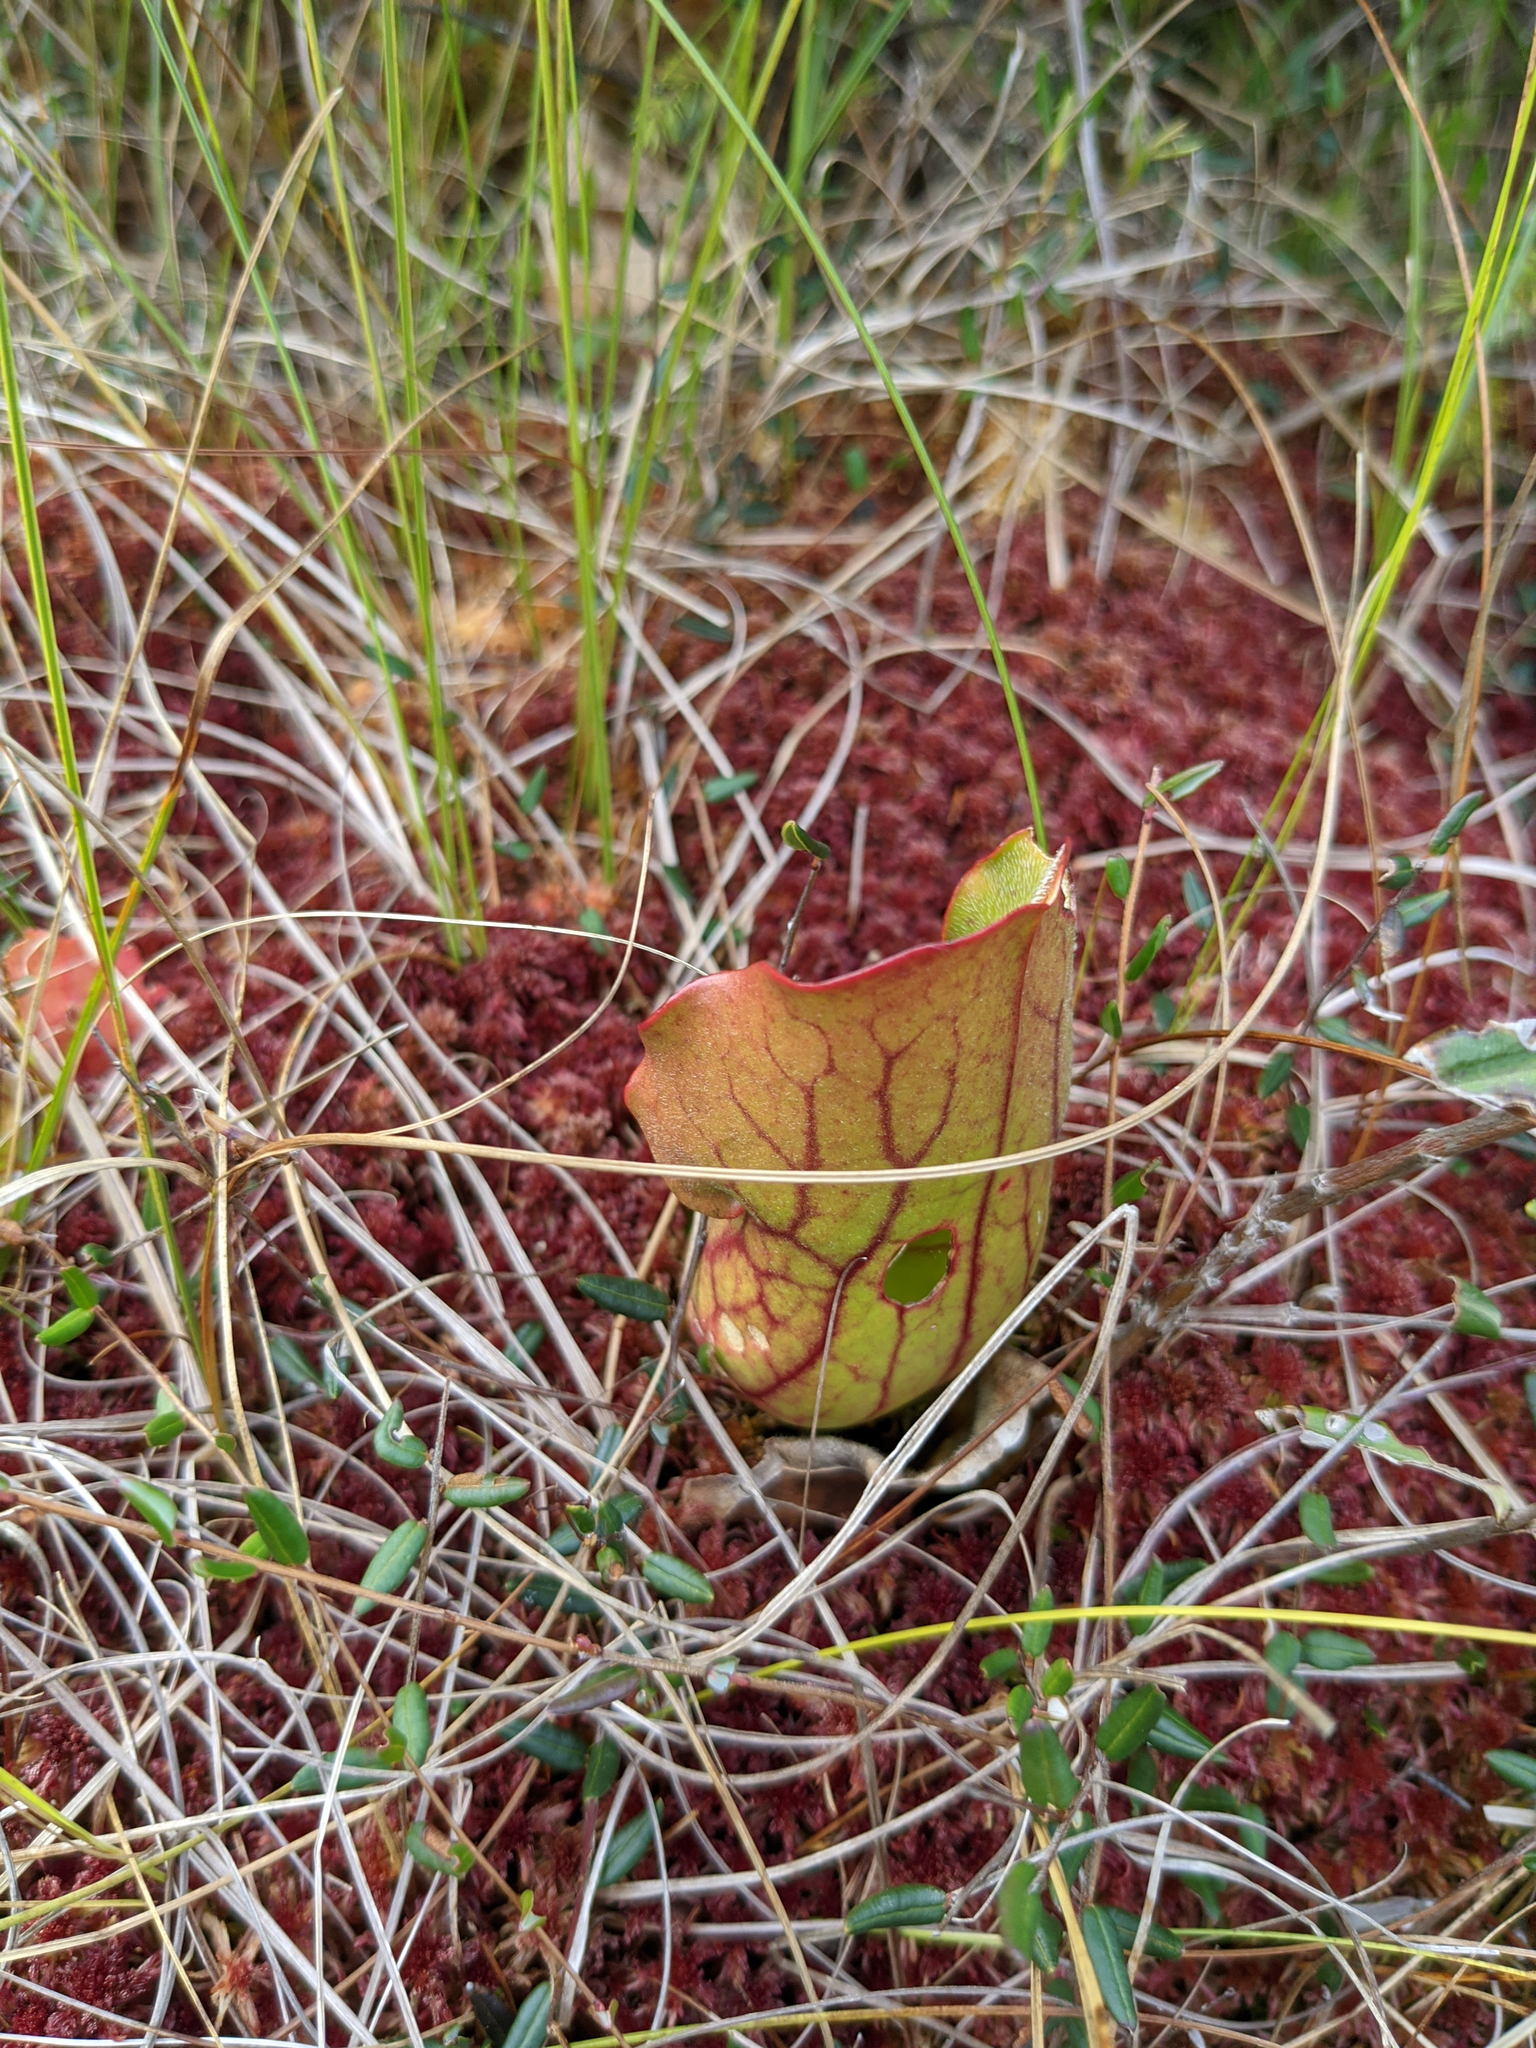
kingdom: Plantae
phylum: Tracheophyta
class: Magnoliopsida
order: Ericales
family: Sarraceniaceae
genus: Sarracenia
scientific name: Sarracenia purpurea
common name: Pitcherplant
